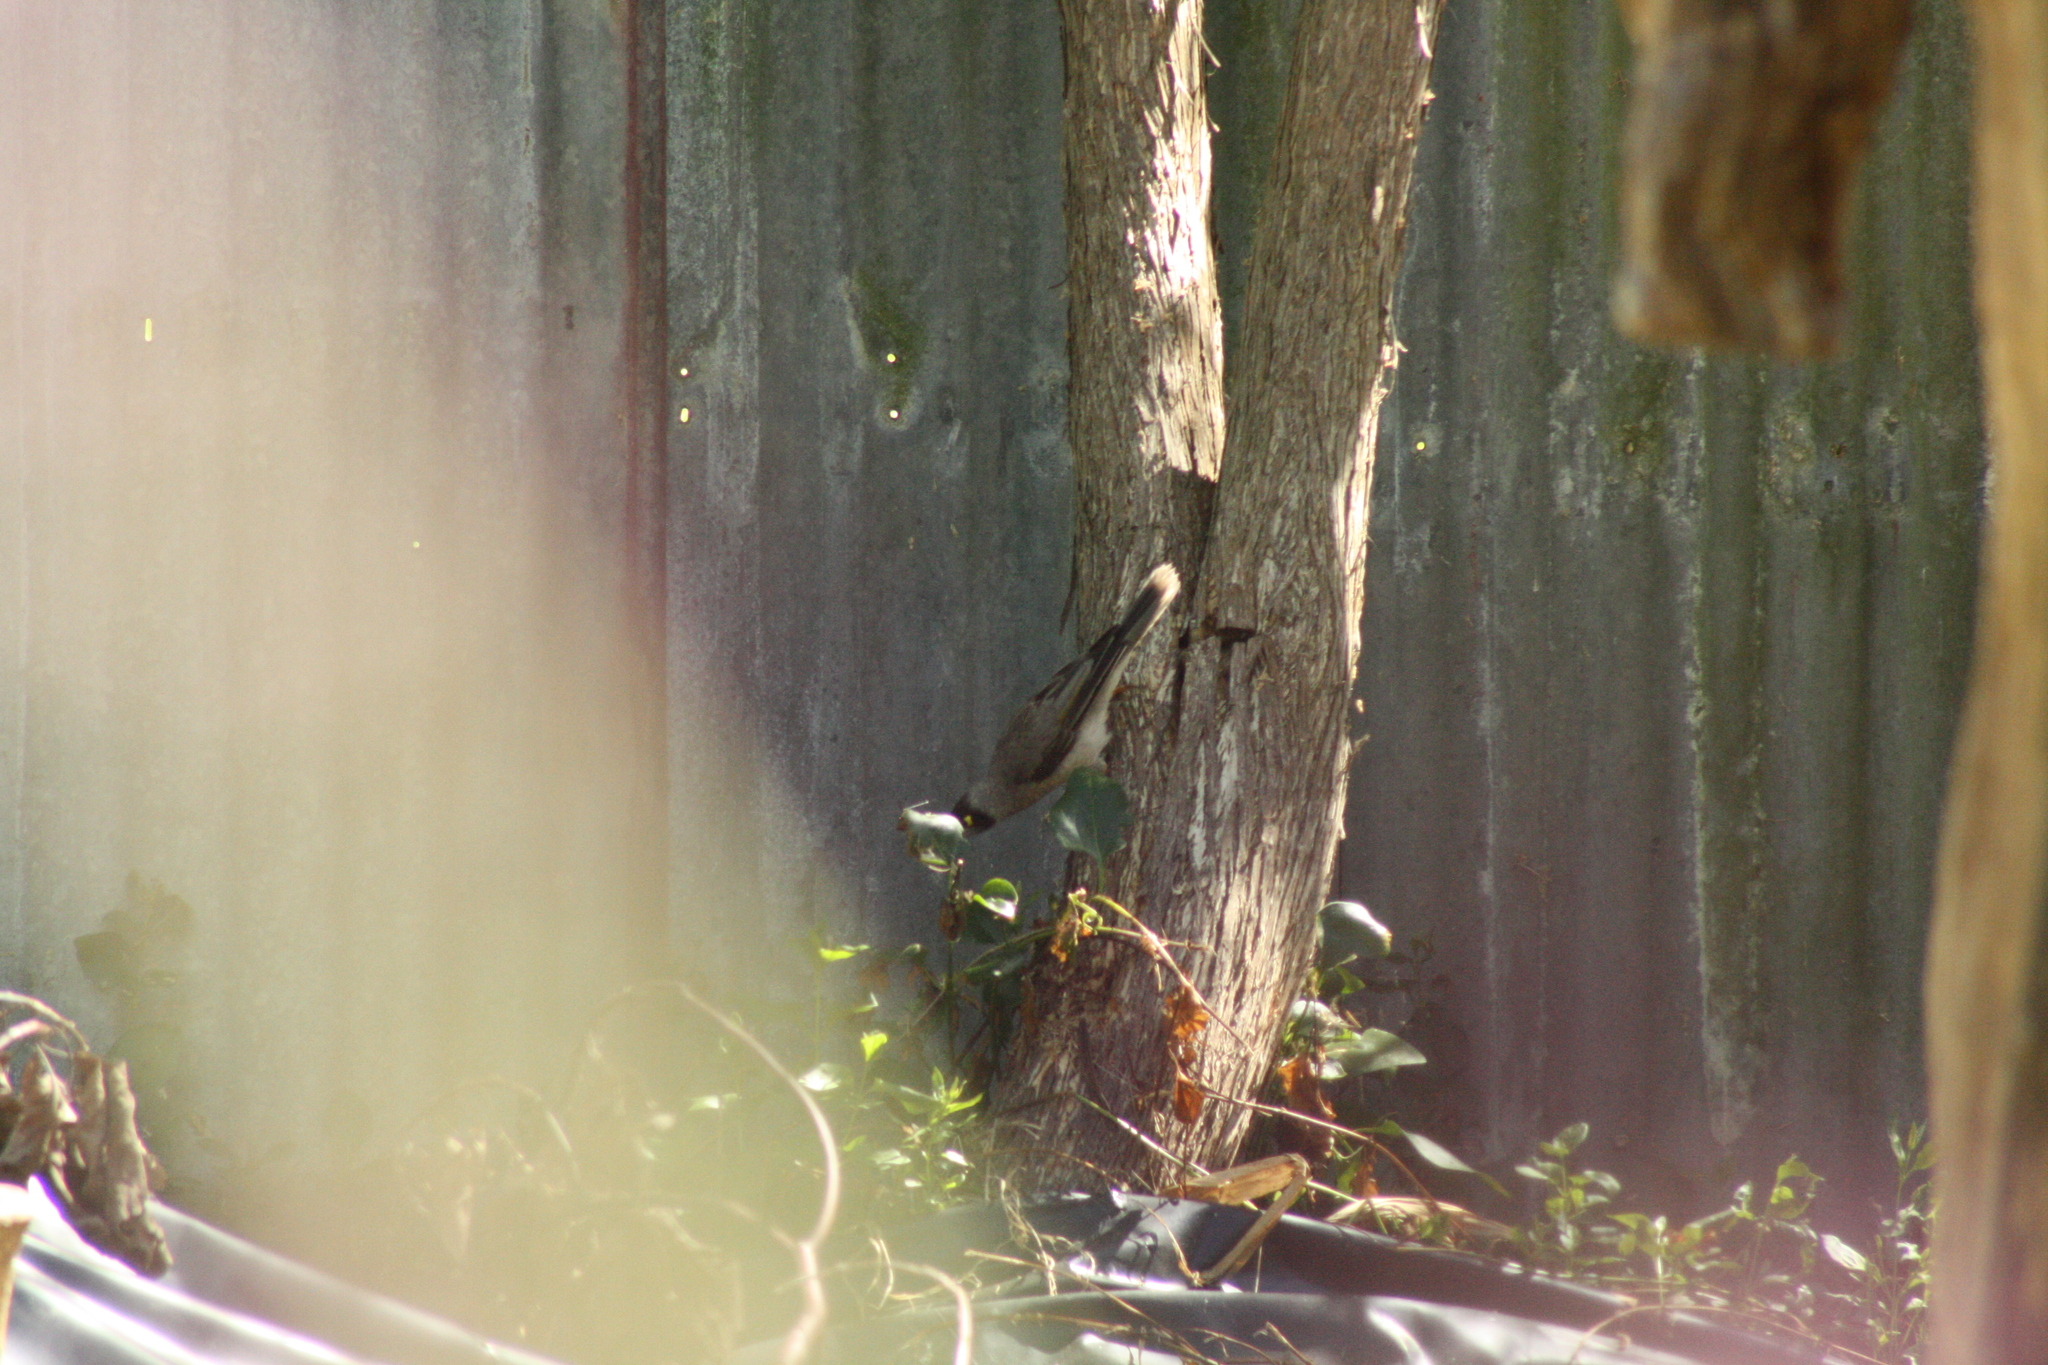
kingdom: Animalia
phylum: Chordata
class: Aves
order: Passeriformes
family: Meliphagidae
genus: Manorina
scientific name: Manorina melanocephala
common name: Noisy miner
